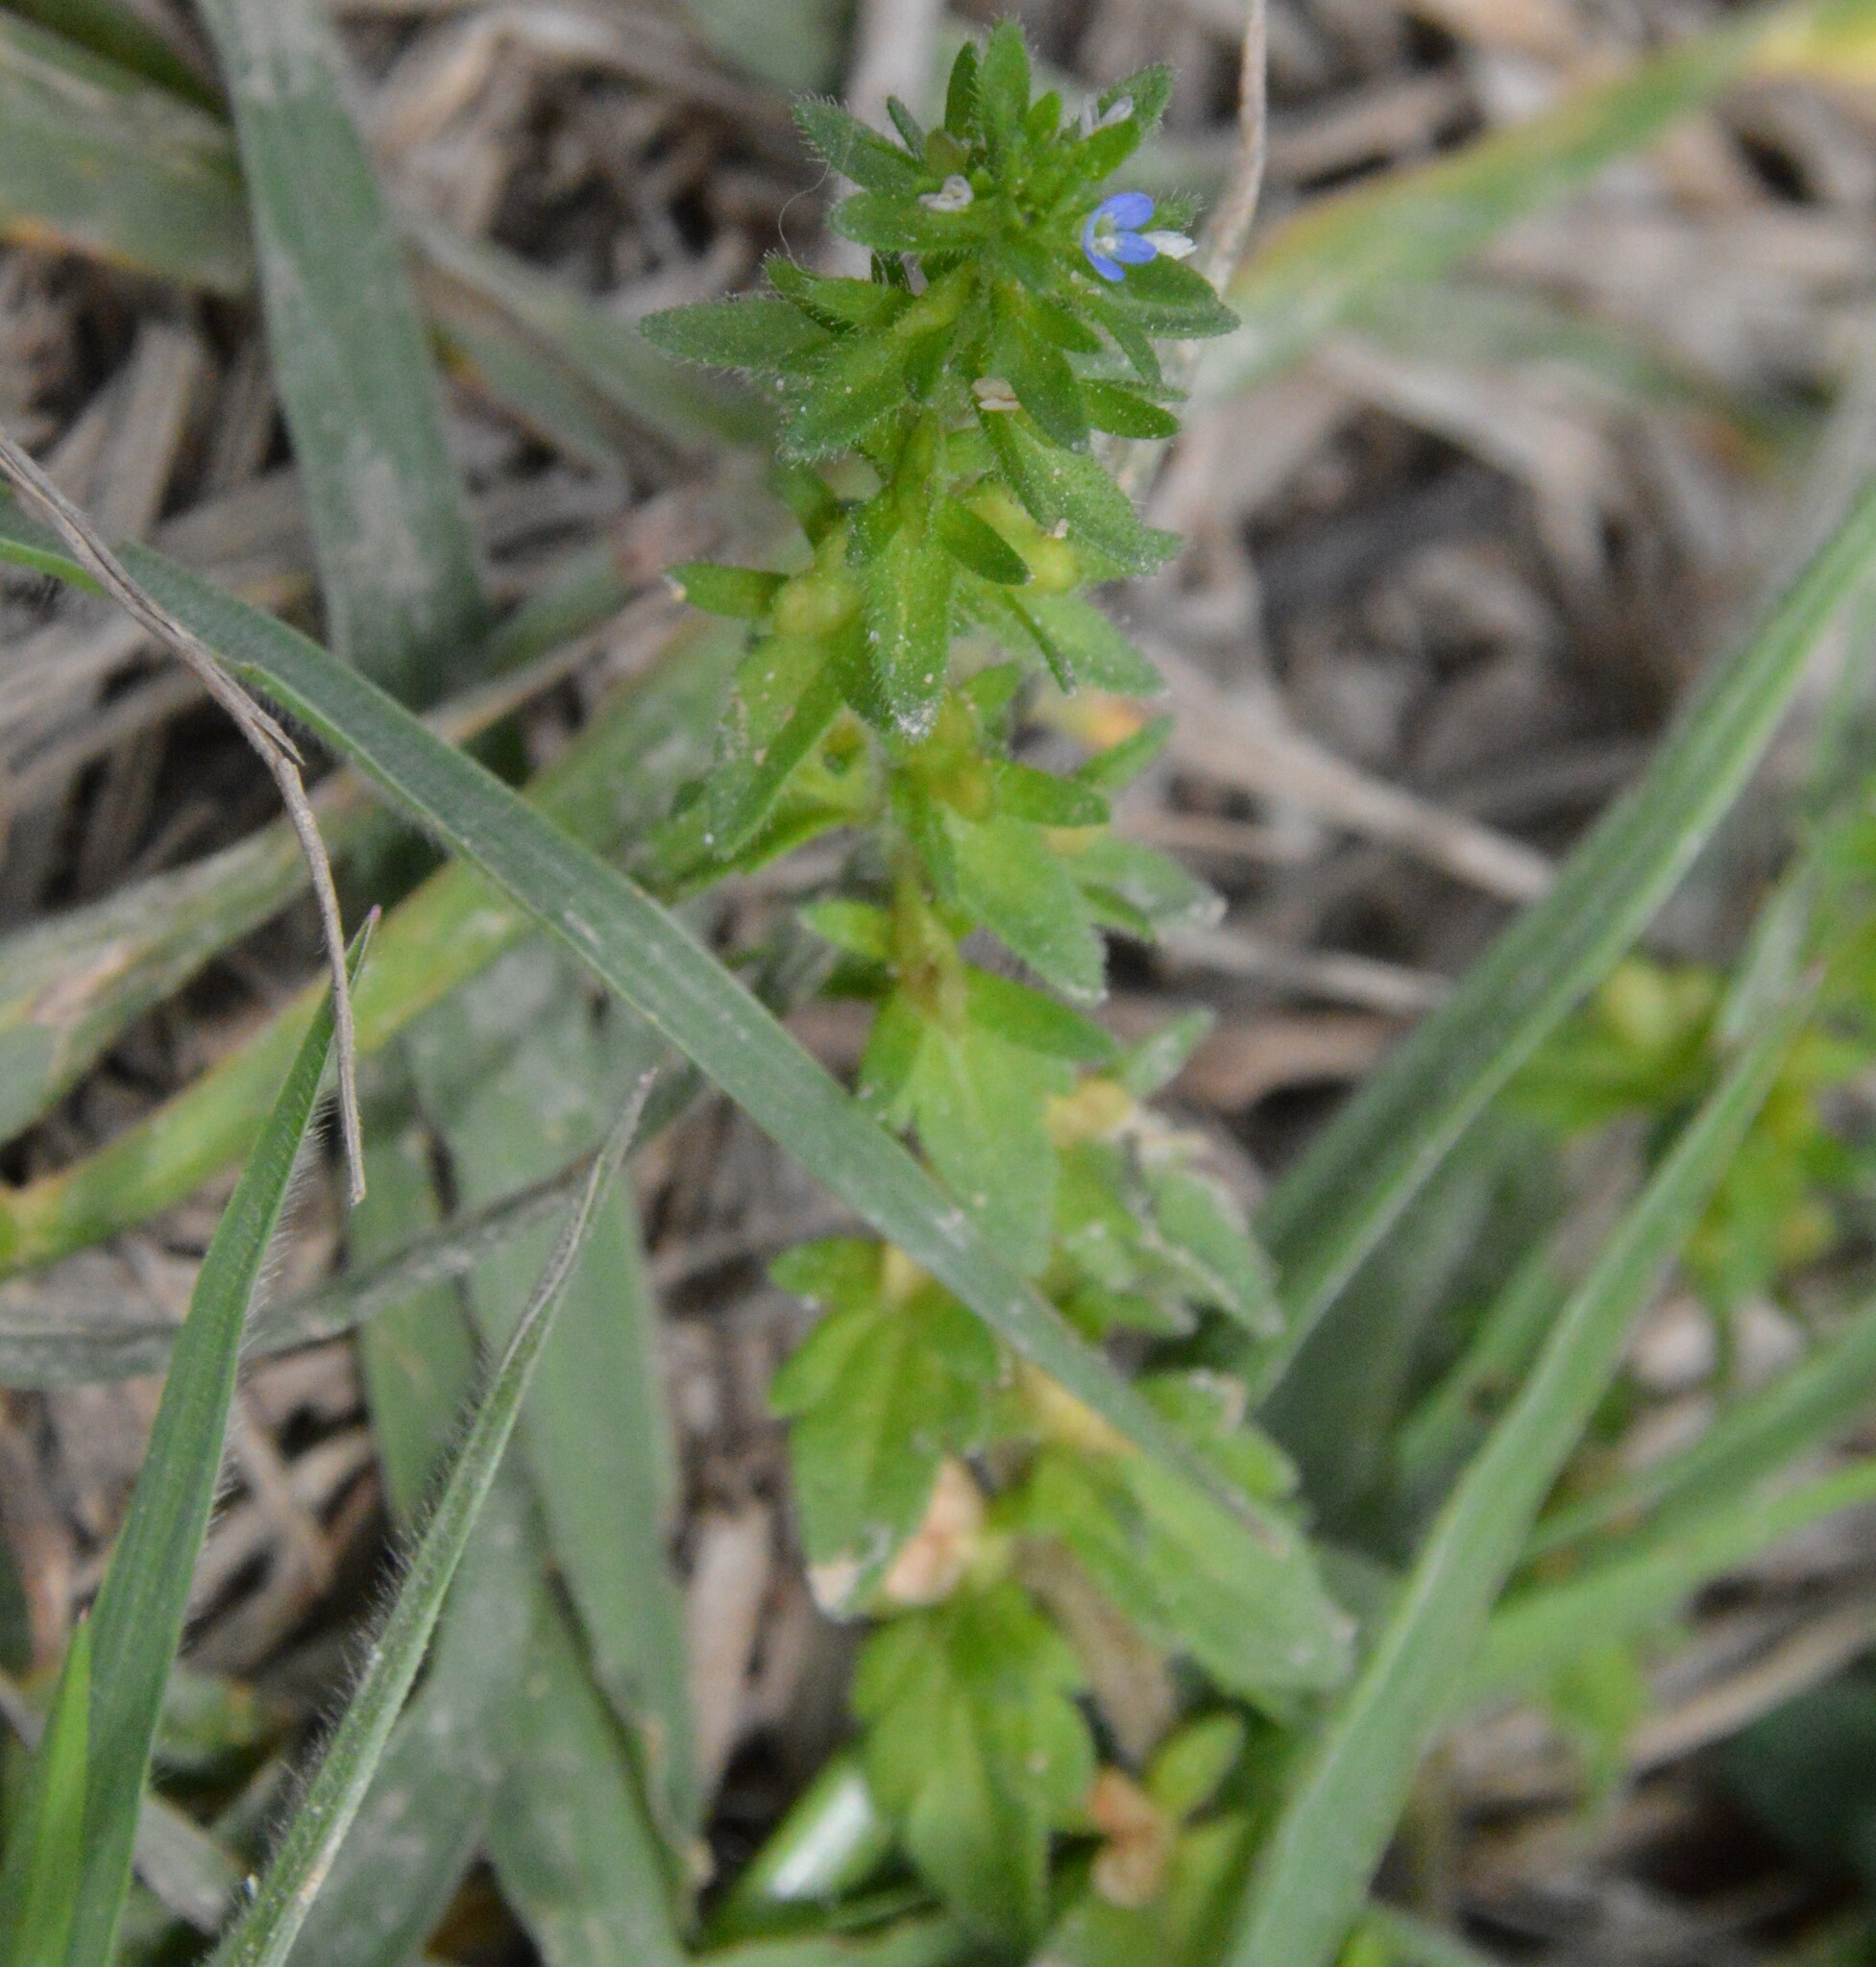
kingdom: Plantae
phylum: Tracheophyta
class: Magnoliopsida
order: Lamiales
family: Plantaginaceae
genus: Veronica
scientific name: Veronica arvensis
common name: Corn speedwell
